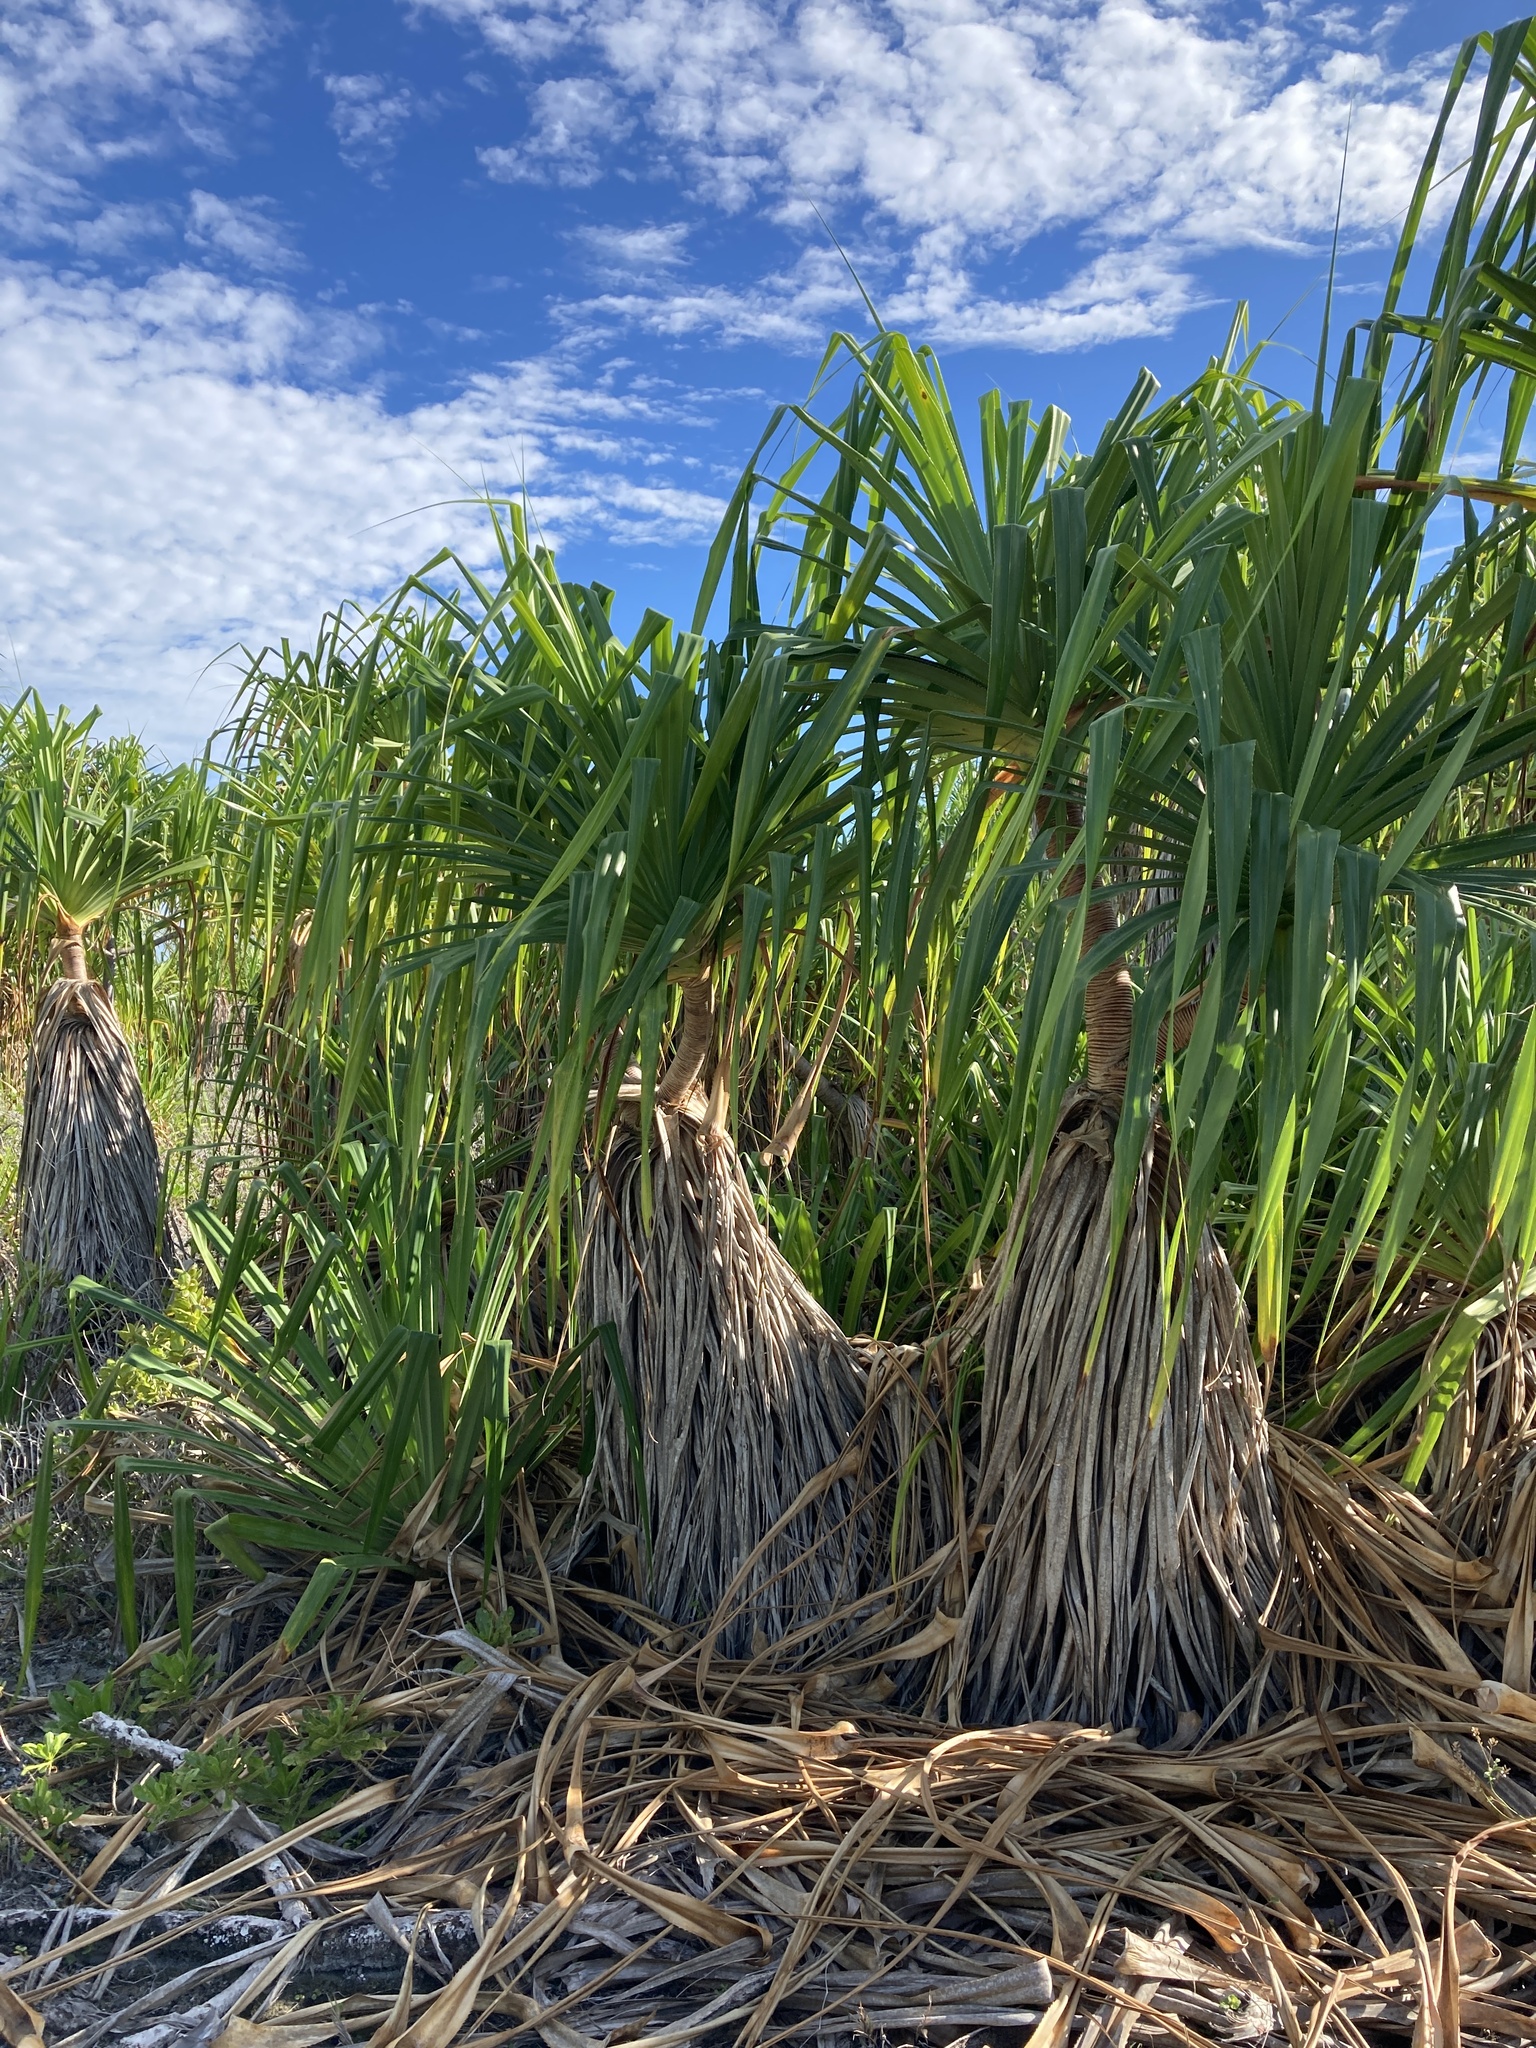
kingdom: Plantae
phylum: Tracheophyta
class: Liliopsida
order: Pandanales
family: Pandanaceae
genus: Pandanus
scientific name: Pandanus tectorius
